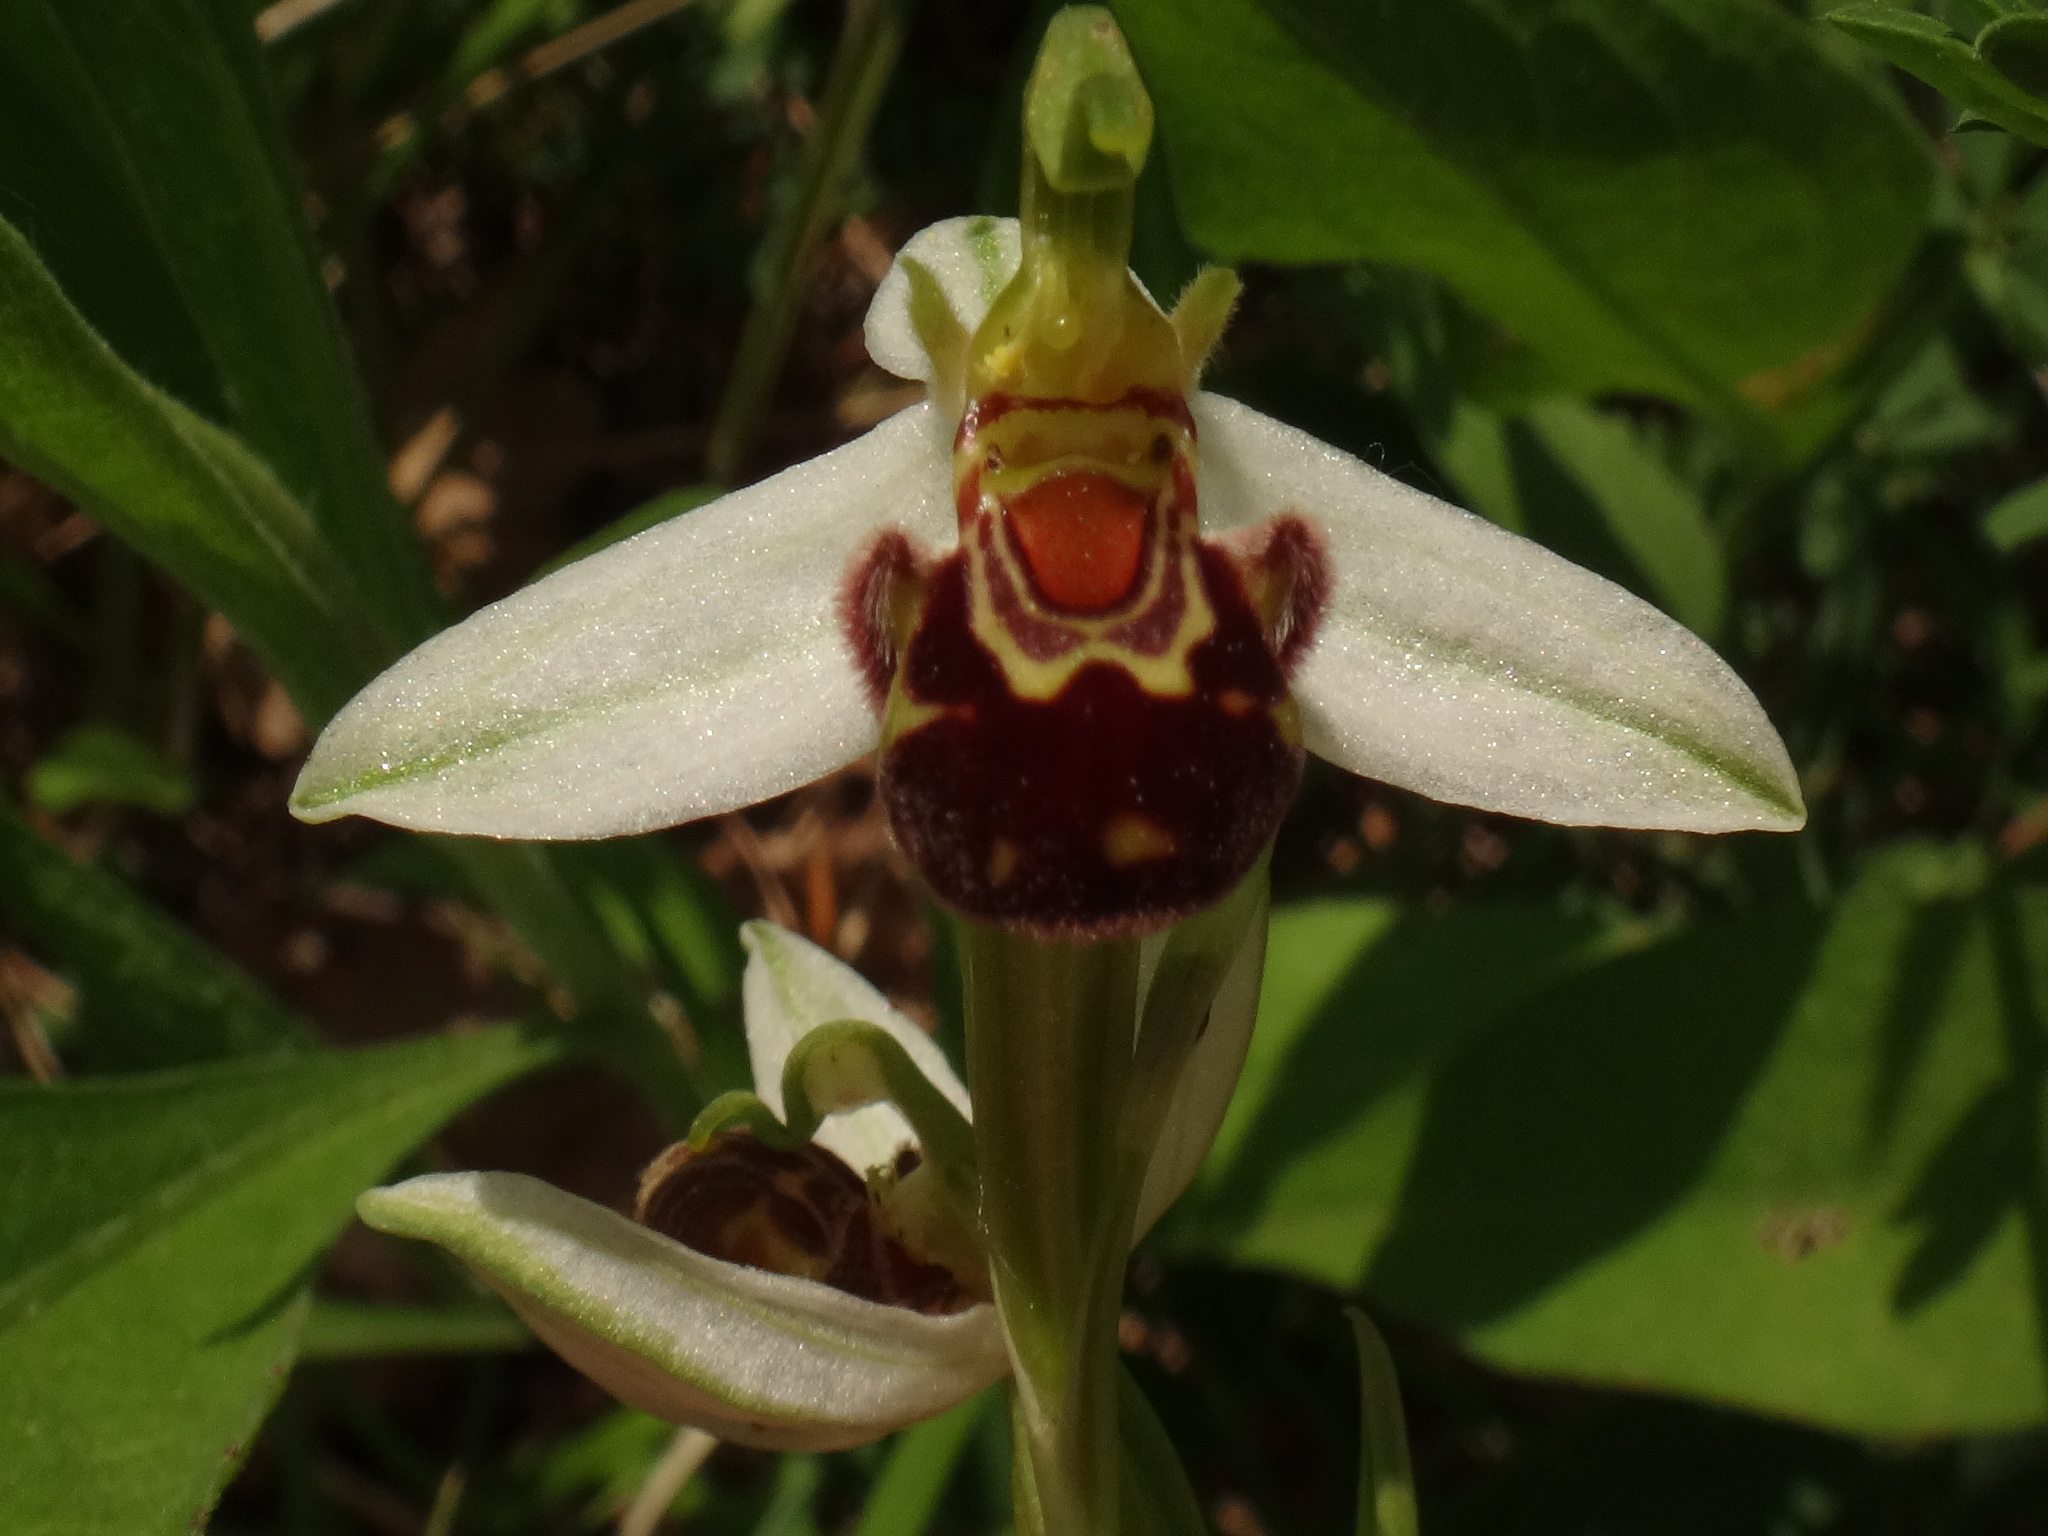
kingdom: Plantae
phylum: Tracheophyta
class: Liliopsida
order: Asparagales
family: Orchidaceae
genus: Ophrys
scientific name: Ophrys apifera
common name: Bee orchid
